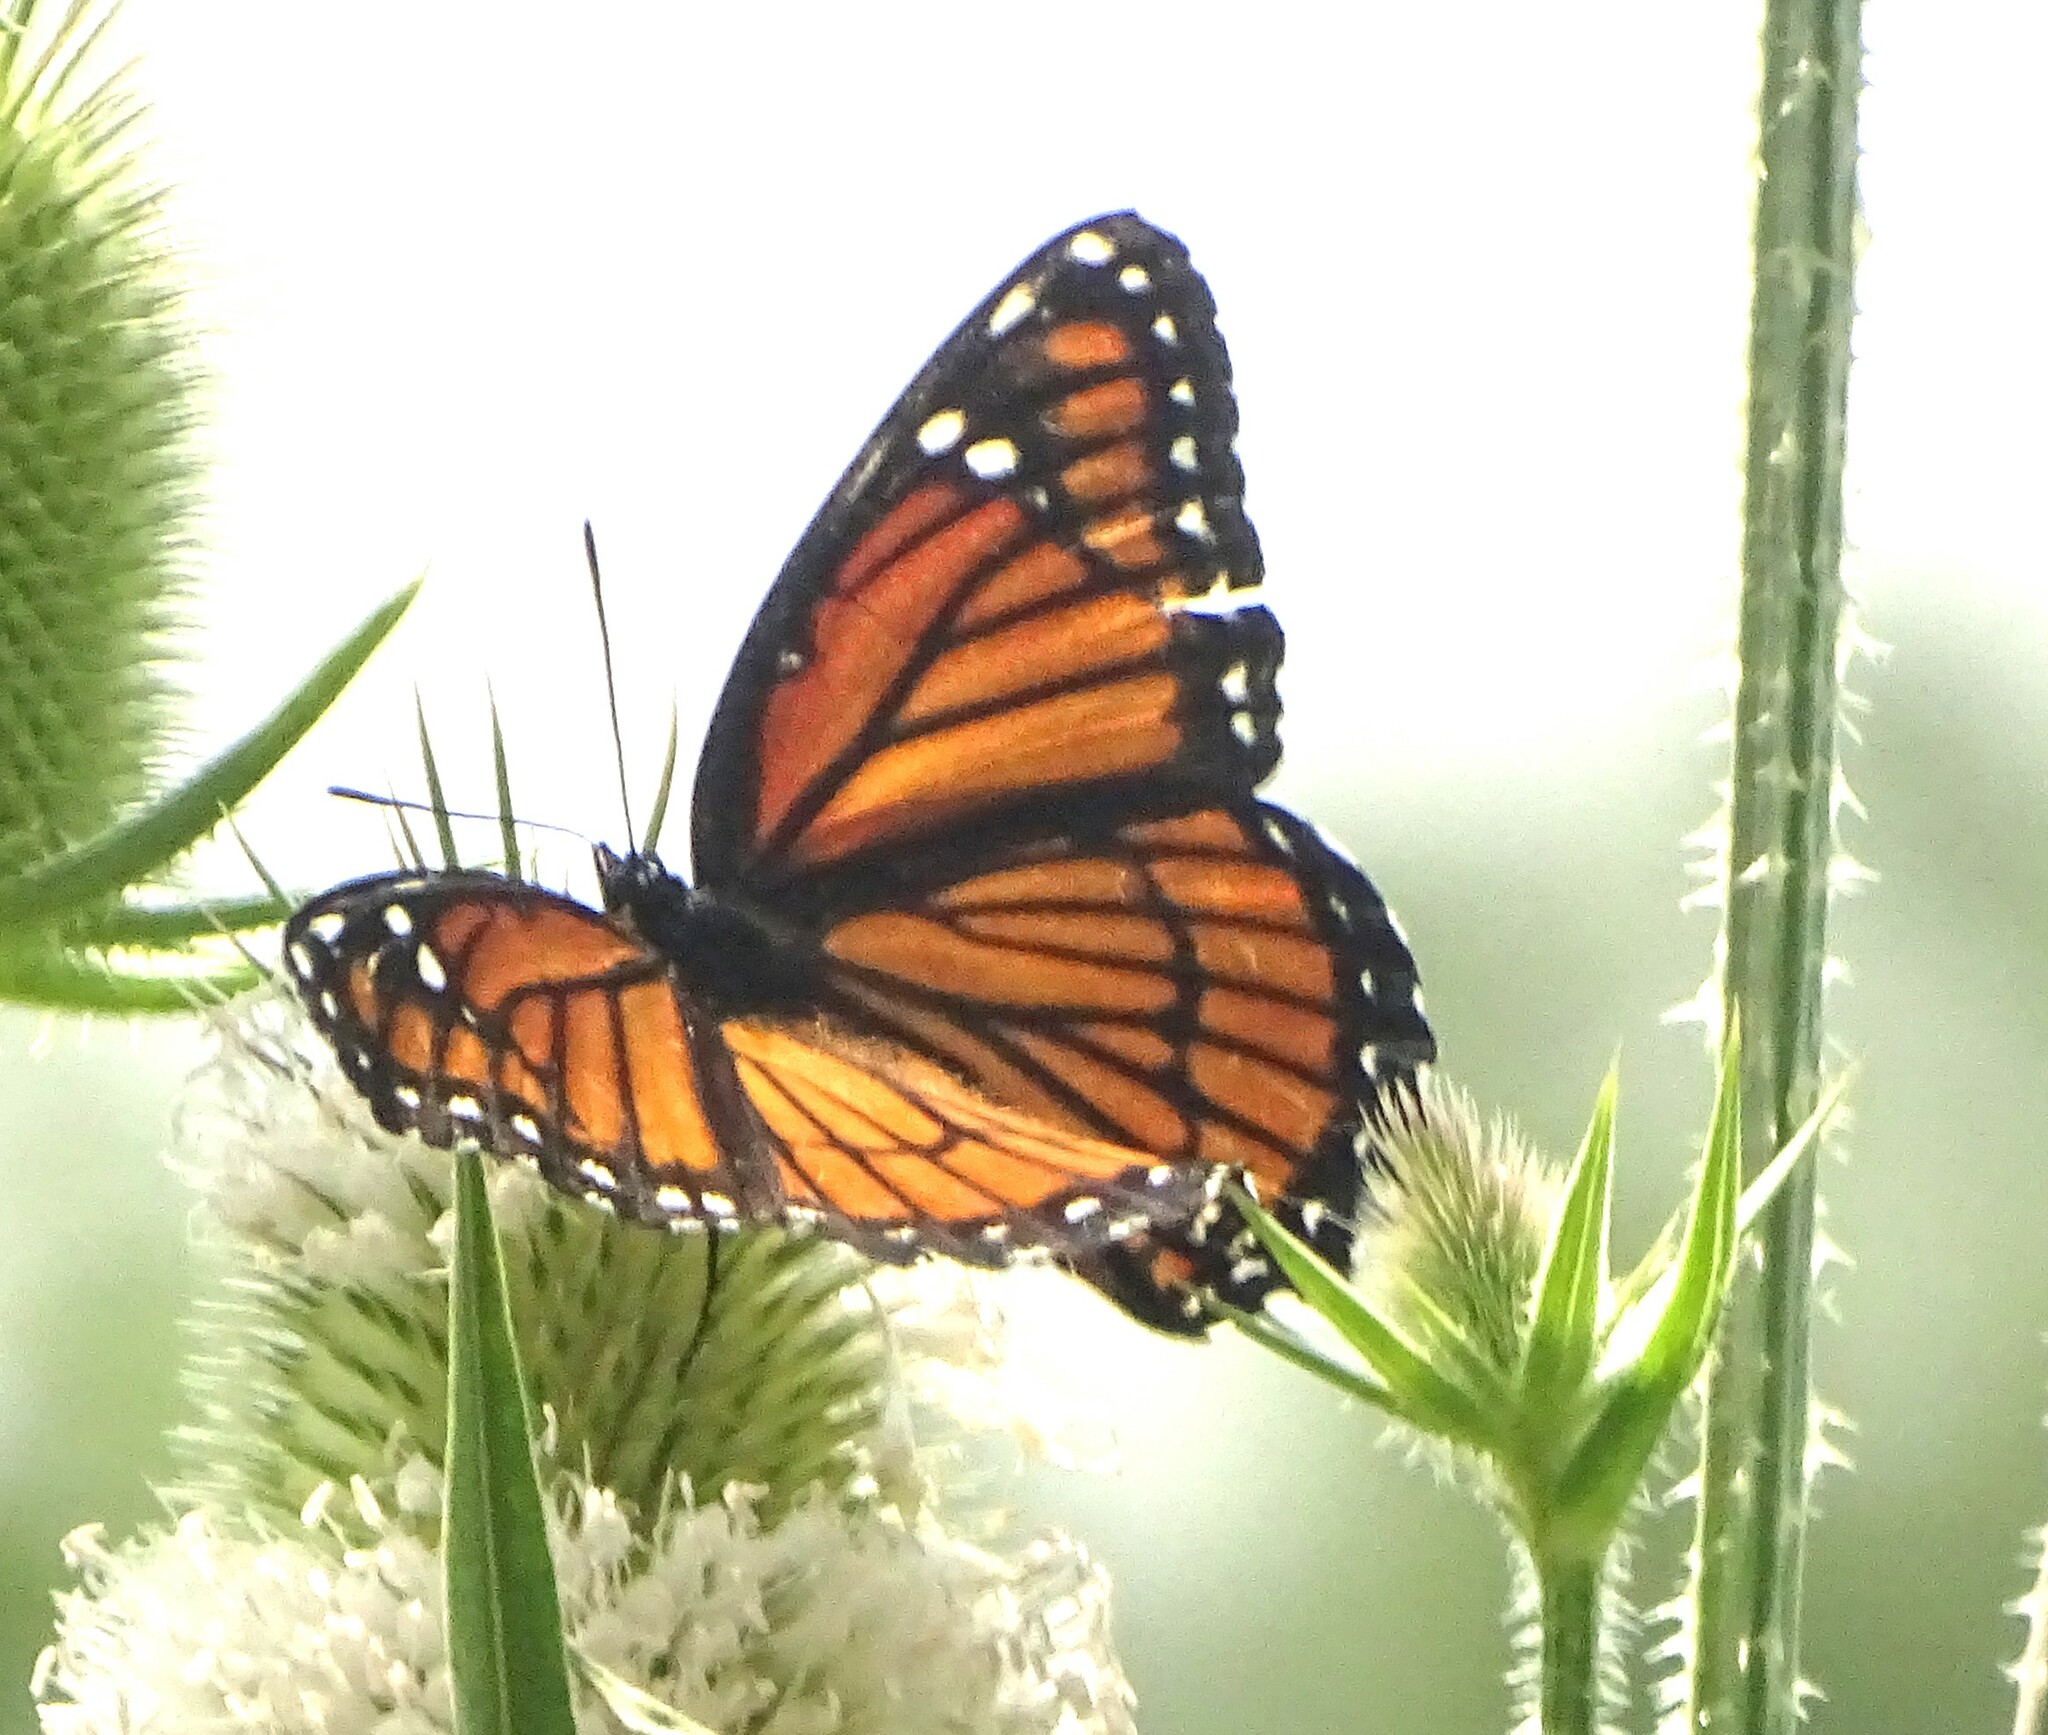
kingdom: Animalia
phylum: Arthropoda
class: Insecta
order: Lepidoptera
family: Nymphalidae
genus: Limenitis
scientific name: Limenitis archippus
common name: Viceroy
